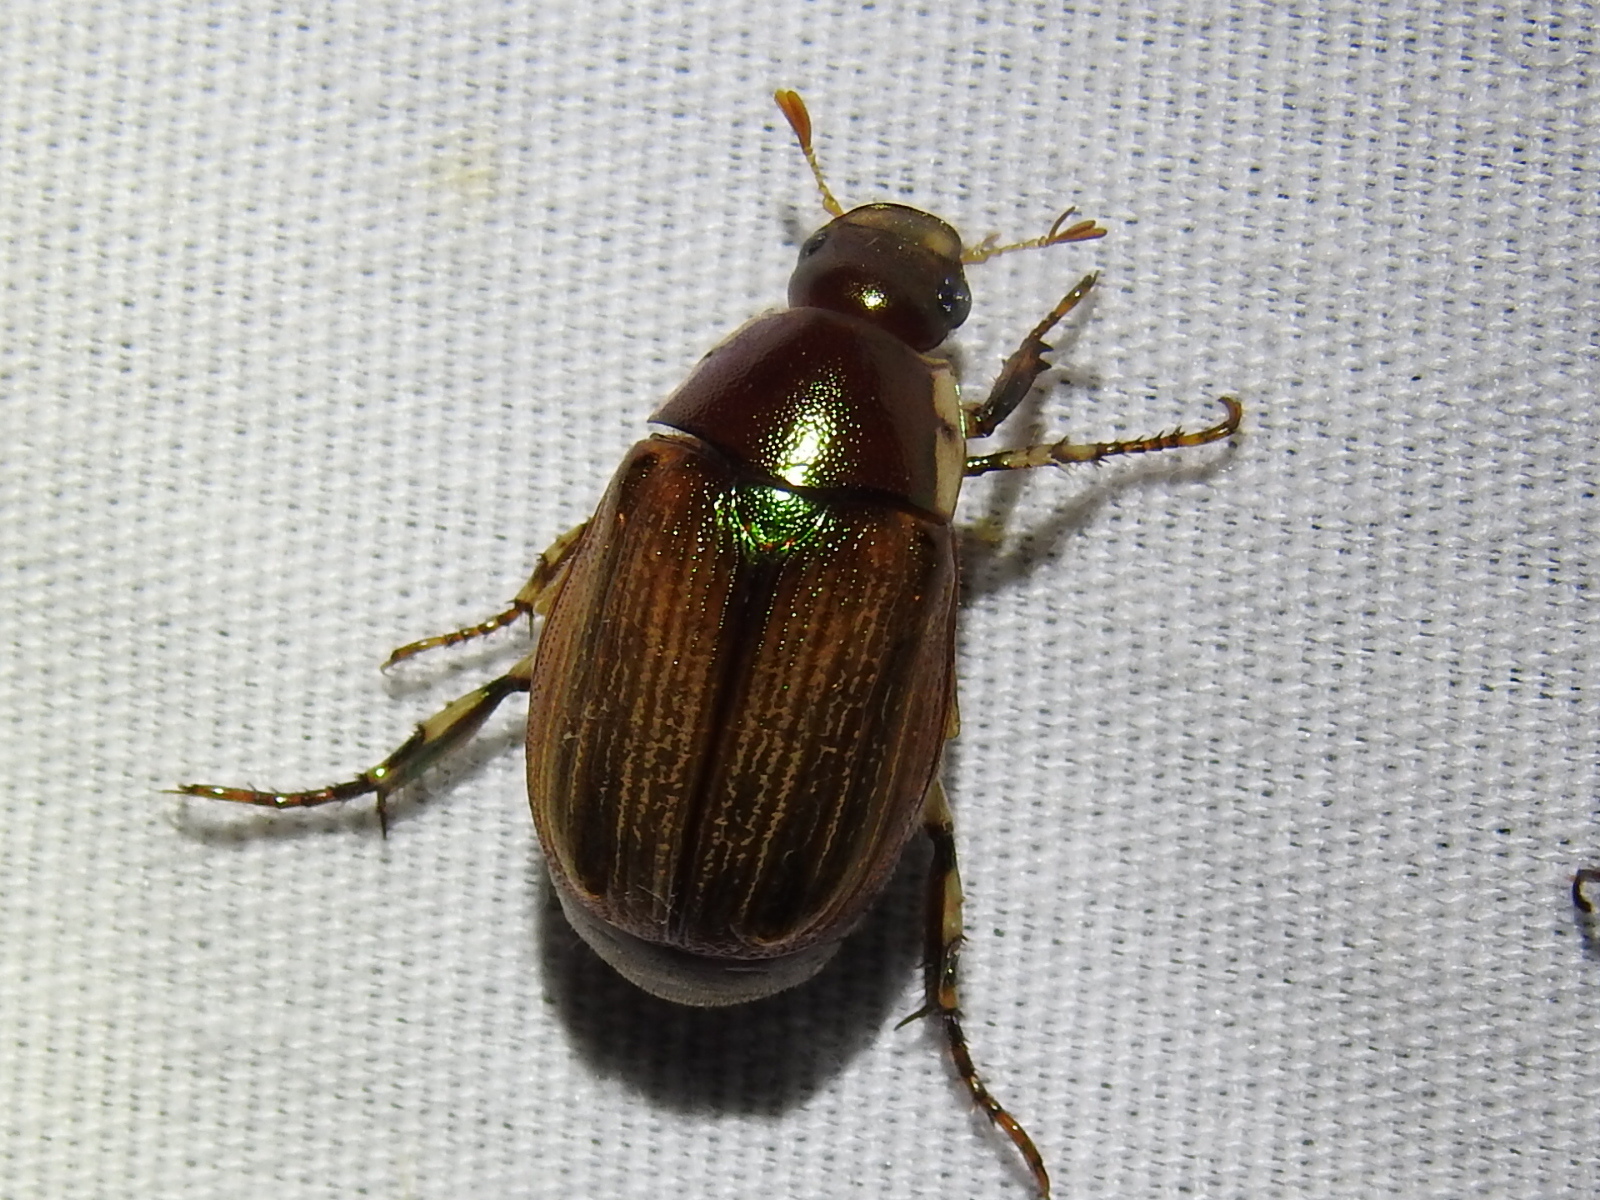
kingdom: Animalia
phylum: Arthropoda
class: Insecta
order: Coleoptera
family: Scarabaeidae
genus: Callistethus
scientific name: Callistethus marginatus
